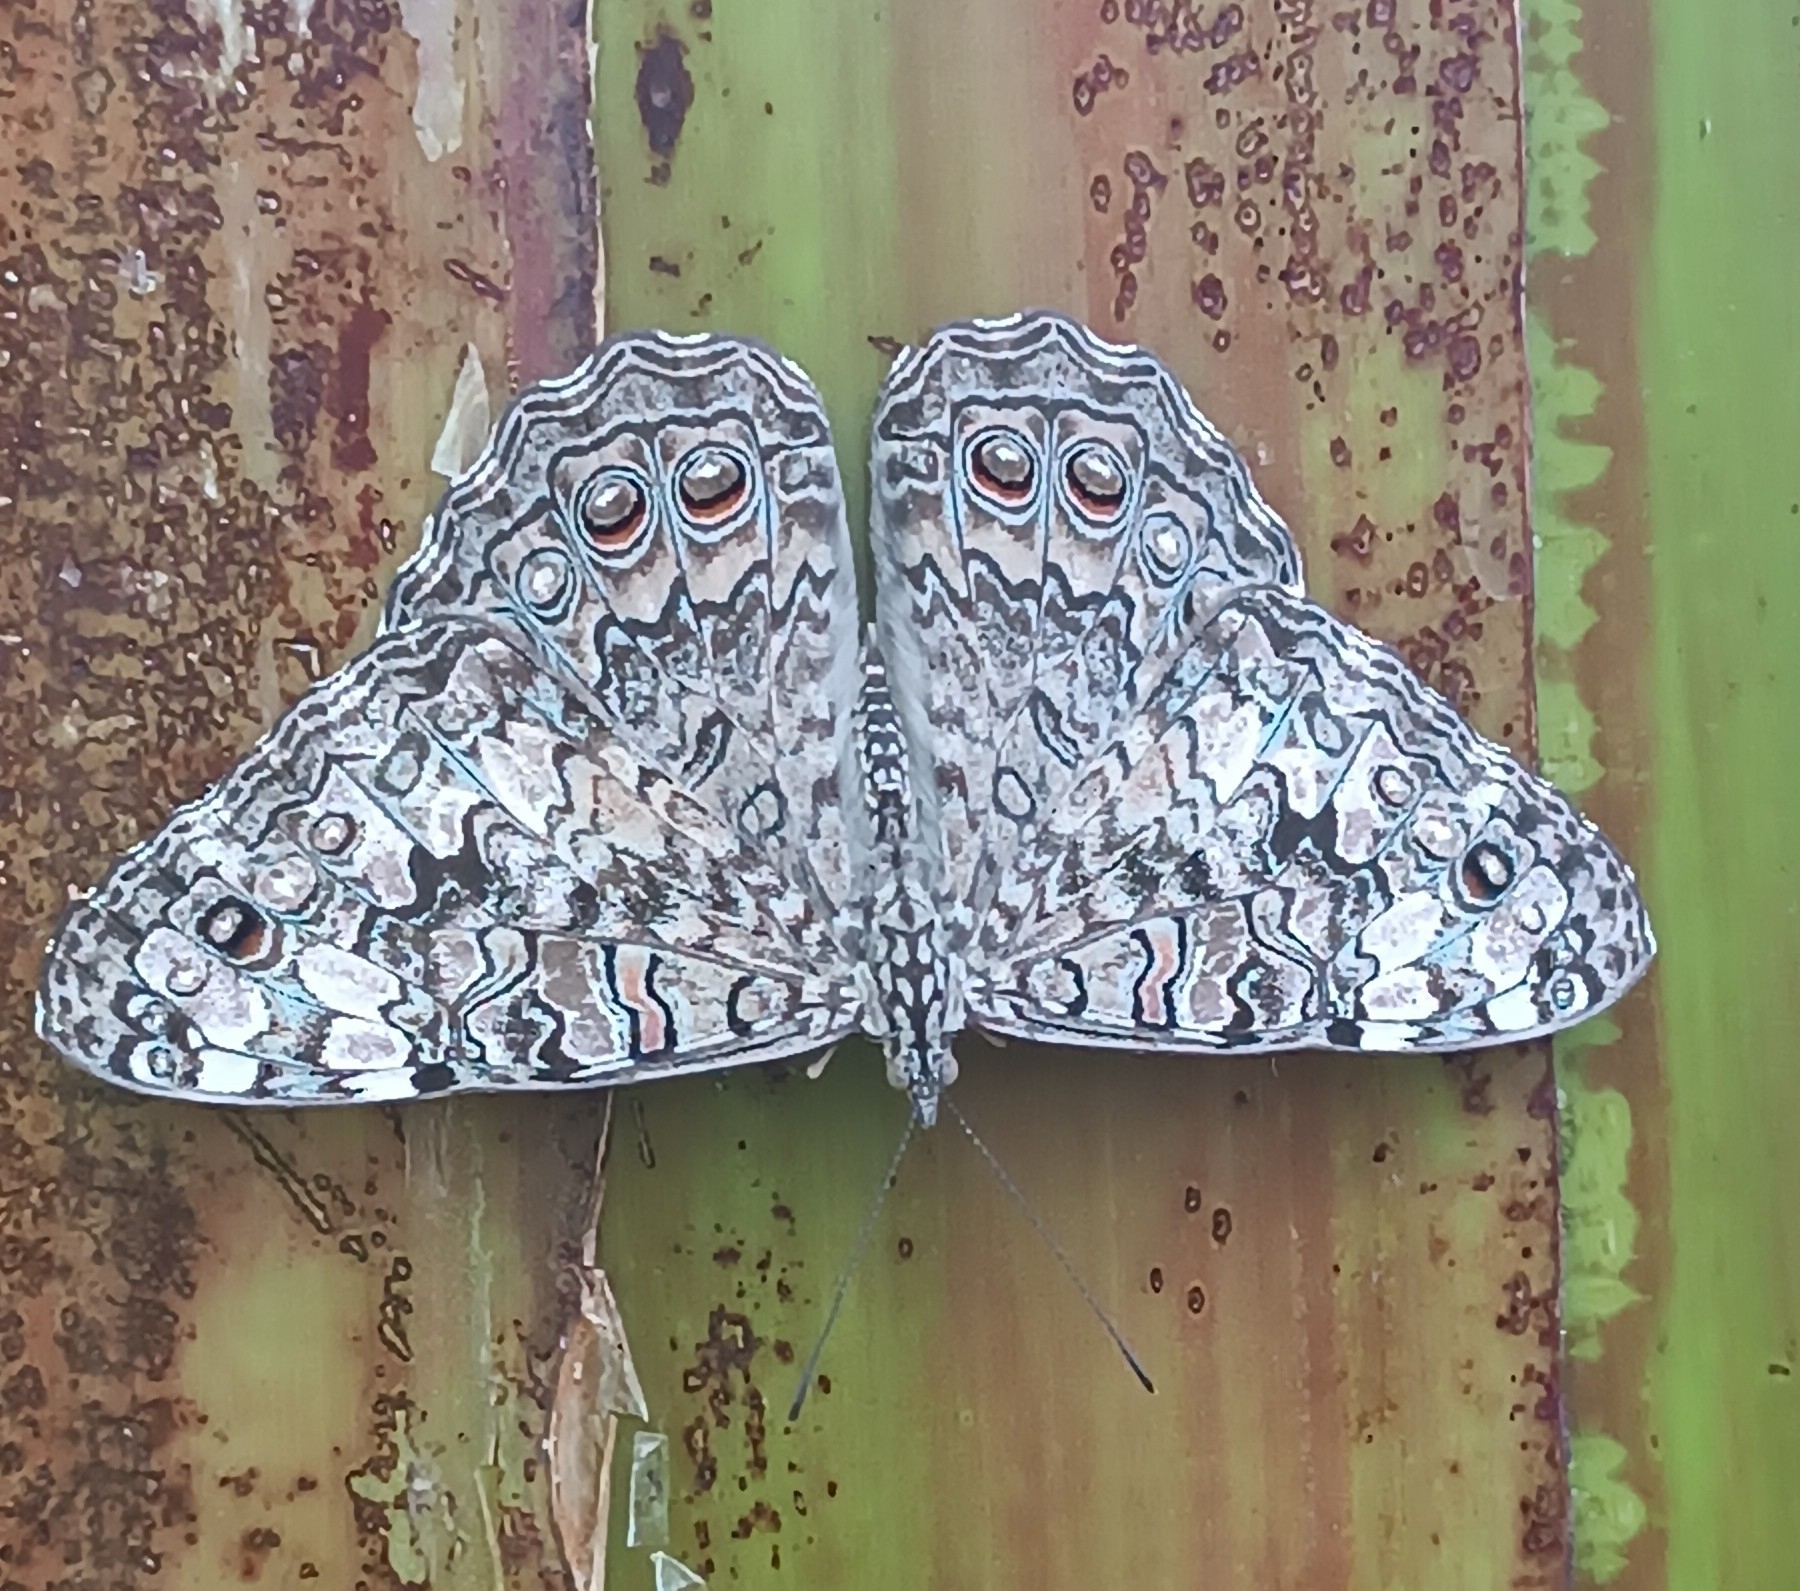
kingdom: Animalia
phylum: Arthropoda
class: Insecta
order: Lepidoptera
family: Nymphalidae
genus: Hamadryas
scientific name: Hamadryas februa
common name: Gray cracker
